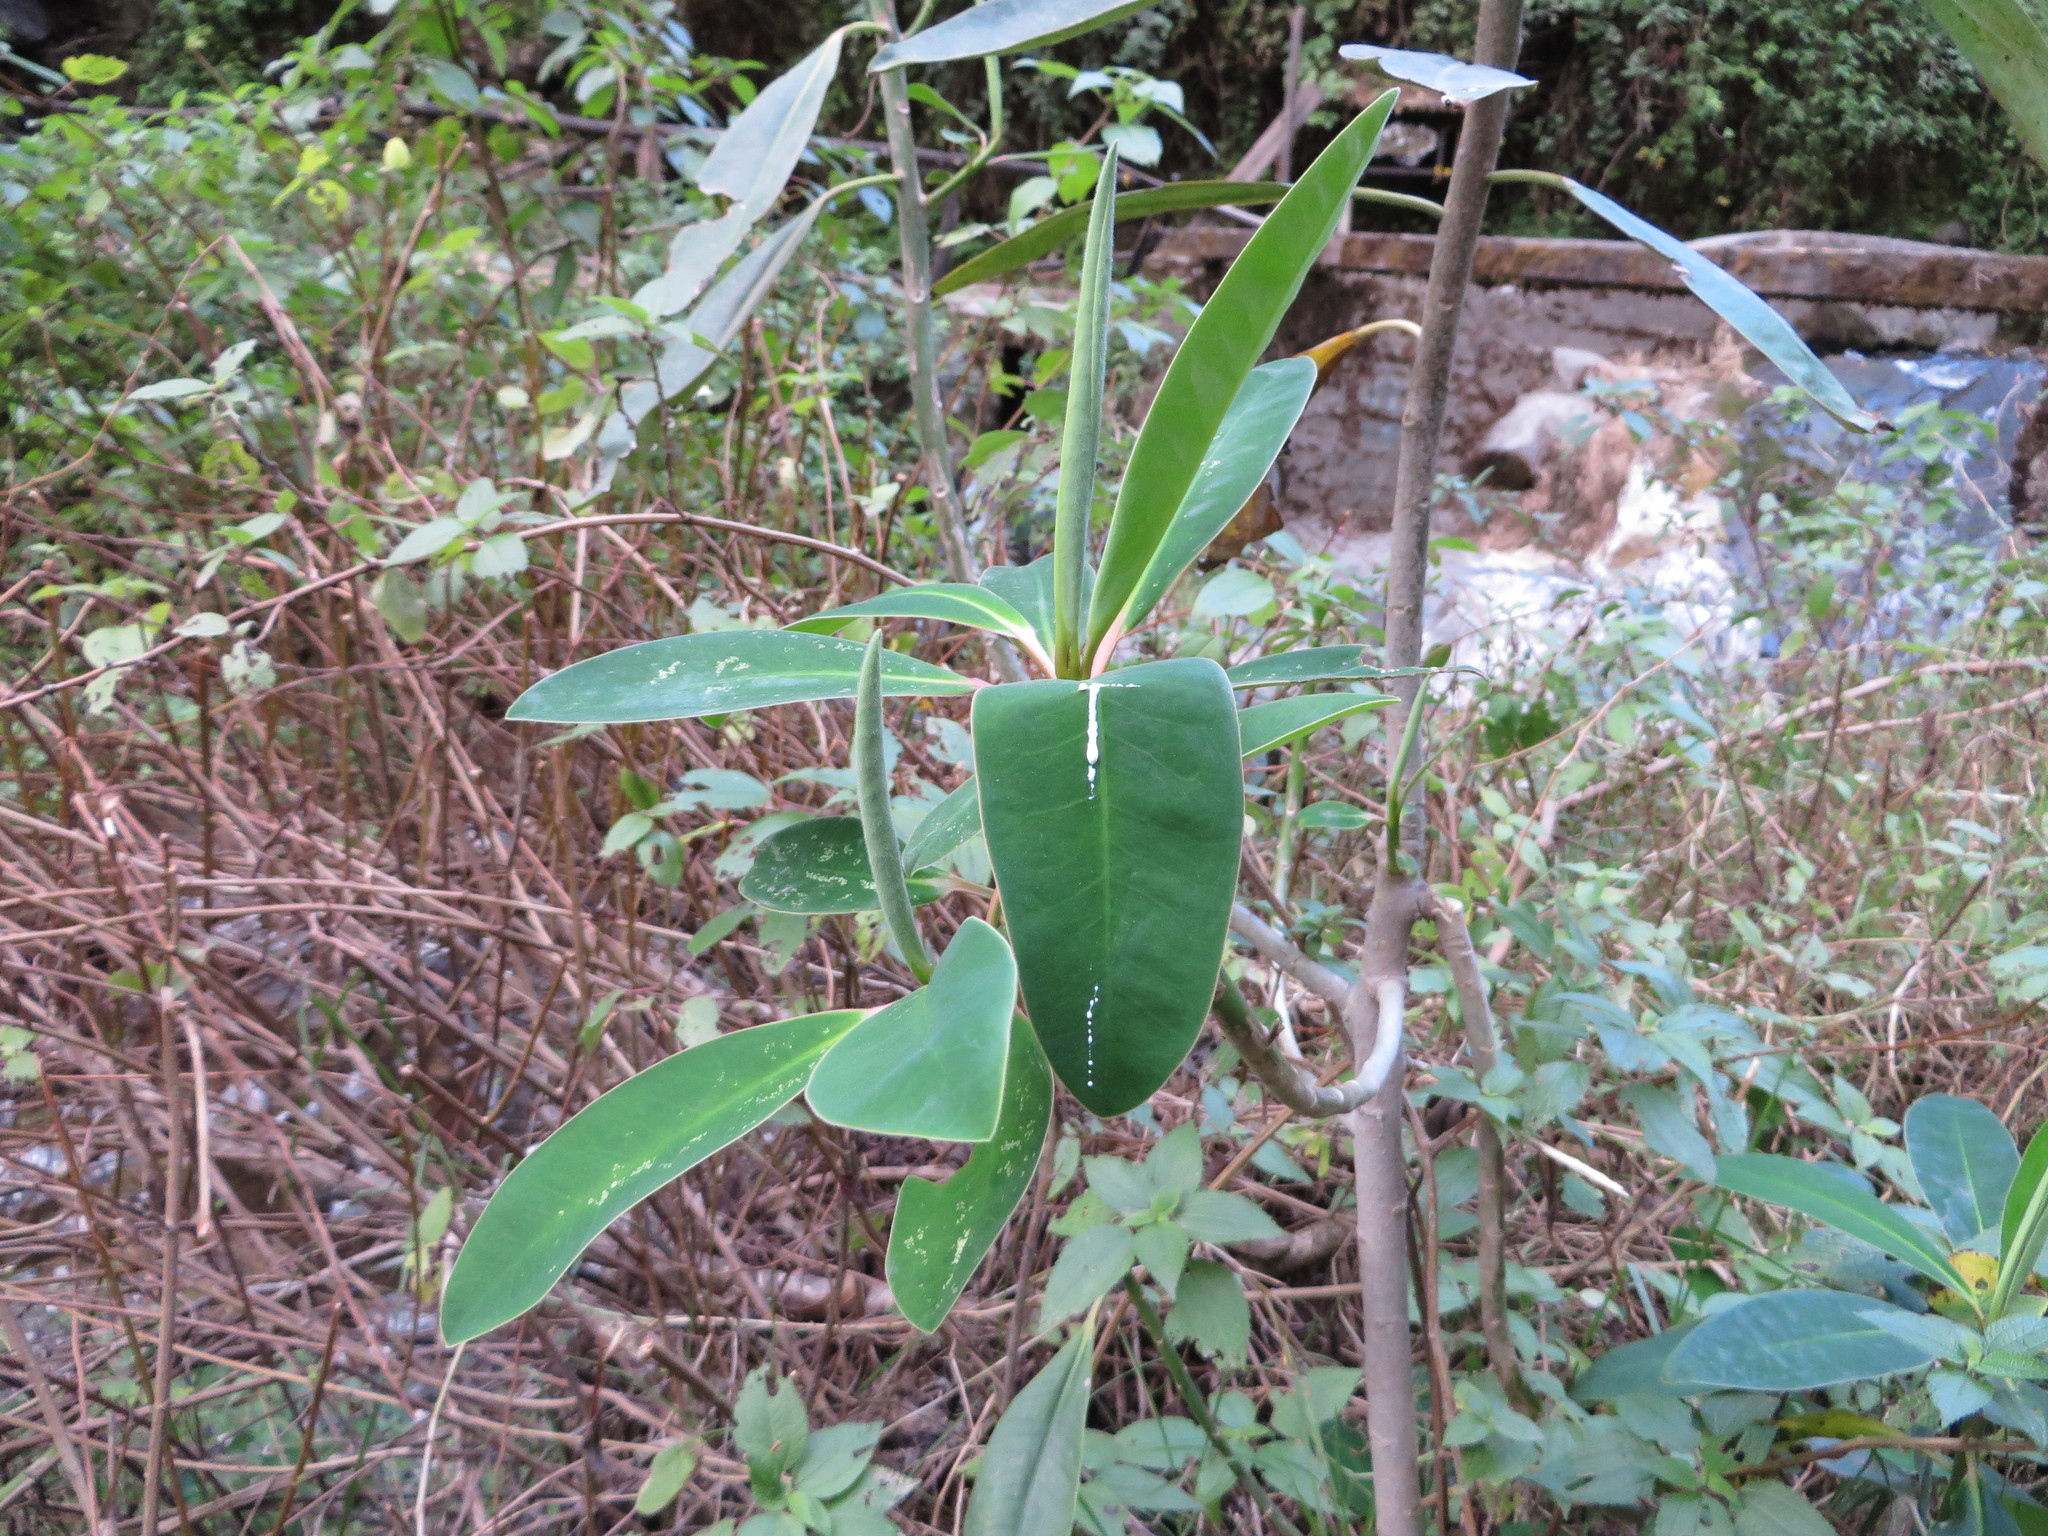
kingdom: Plantae
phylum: Tracheophyta
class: Magnoliopsida
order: Malpighiales
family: Euphorbiaceae
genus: Euphorbia
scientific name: Euphorbia laurifolia
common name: Lechero
